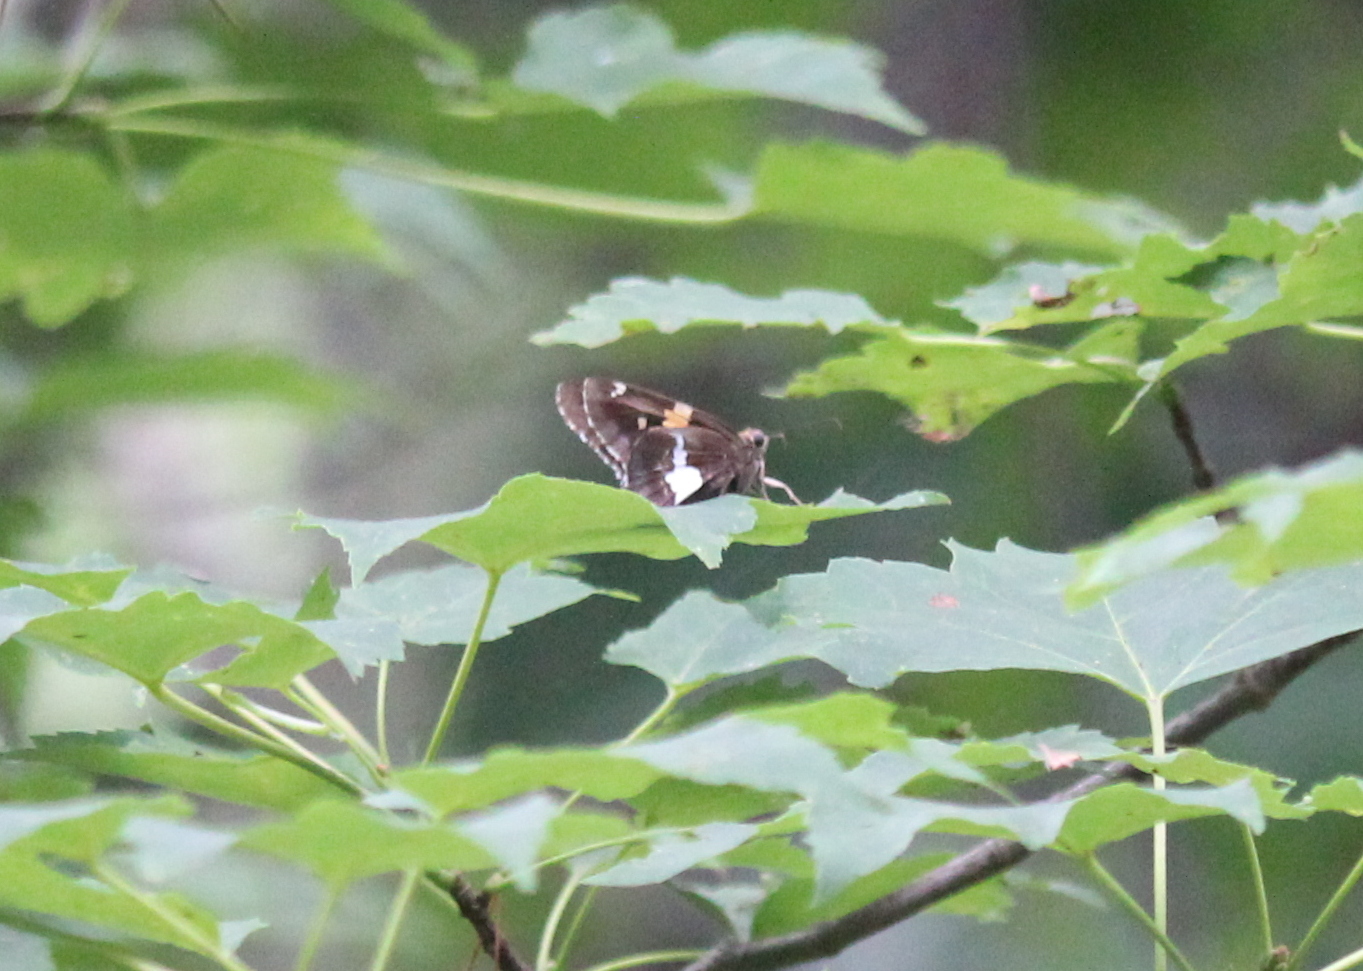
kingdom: Animalia
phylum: Arthropoda
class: Insecta
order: Lepidoptera
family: Hesperiidae
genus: Epargyreus
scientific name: Epargyreus clarus
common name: Silver-spotted skipper
